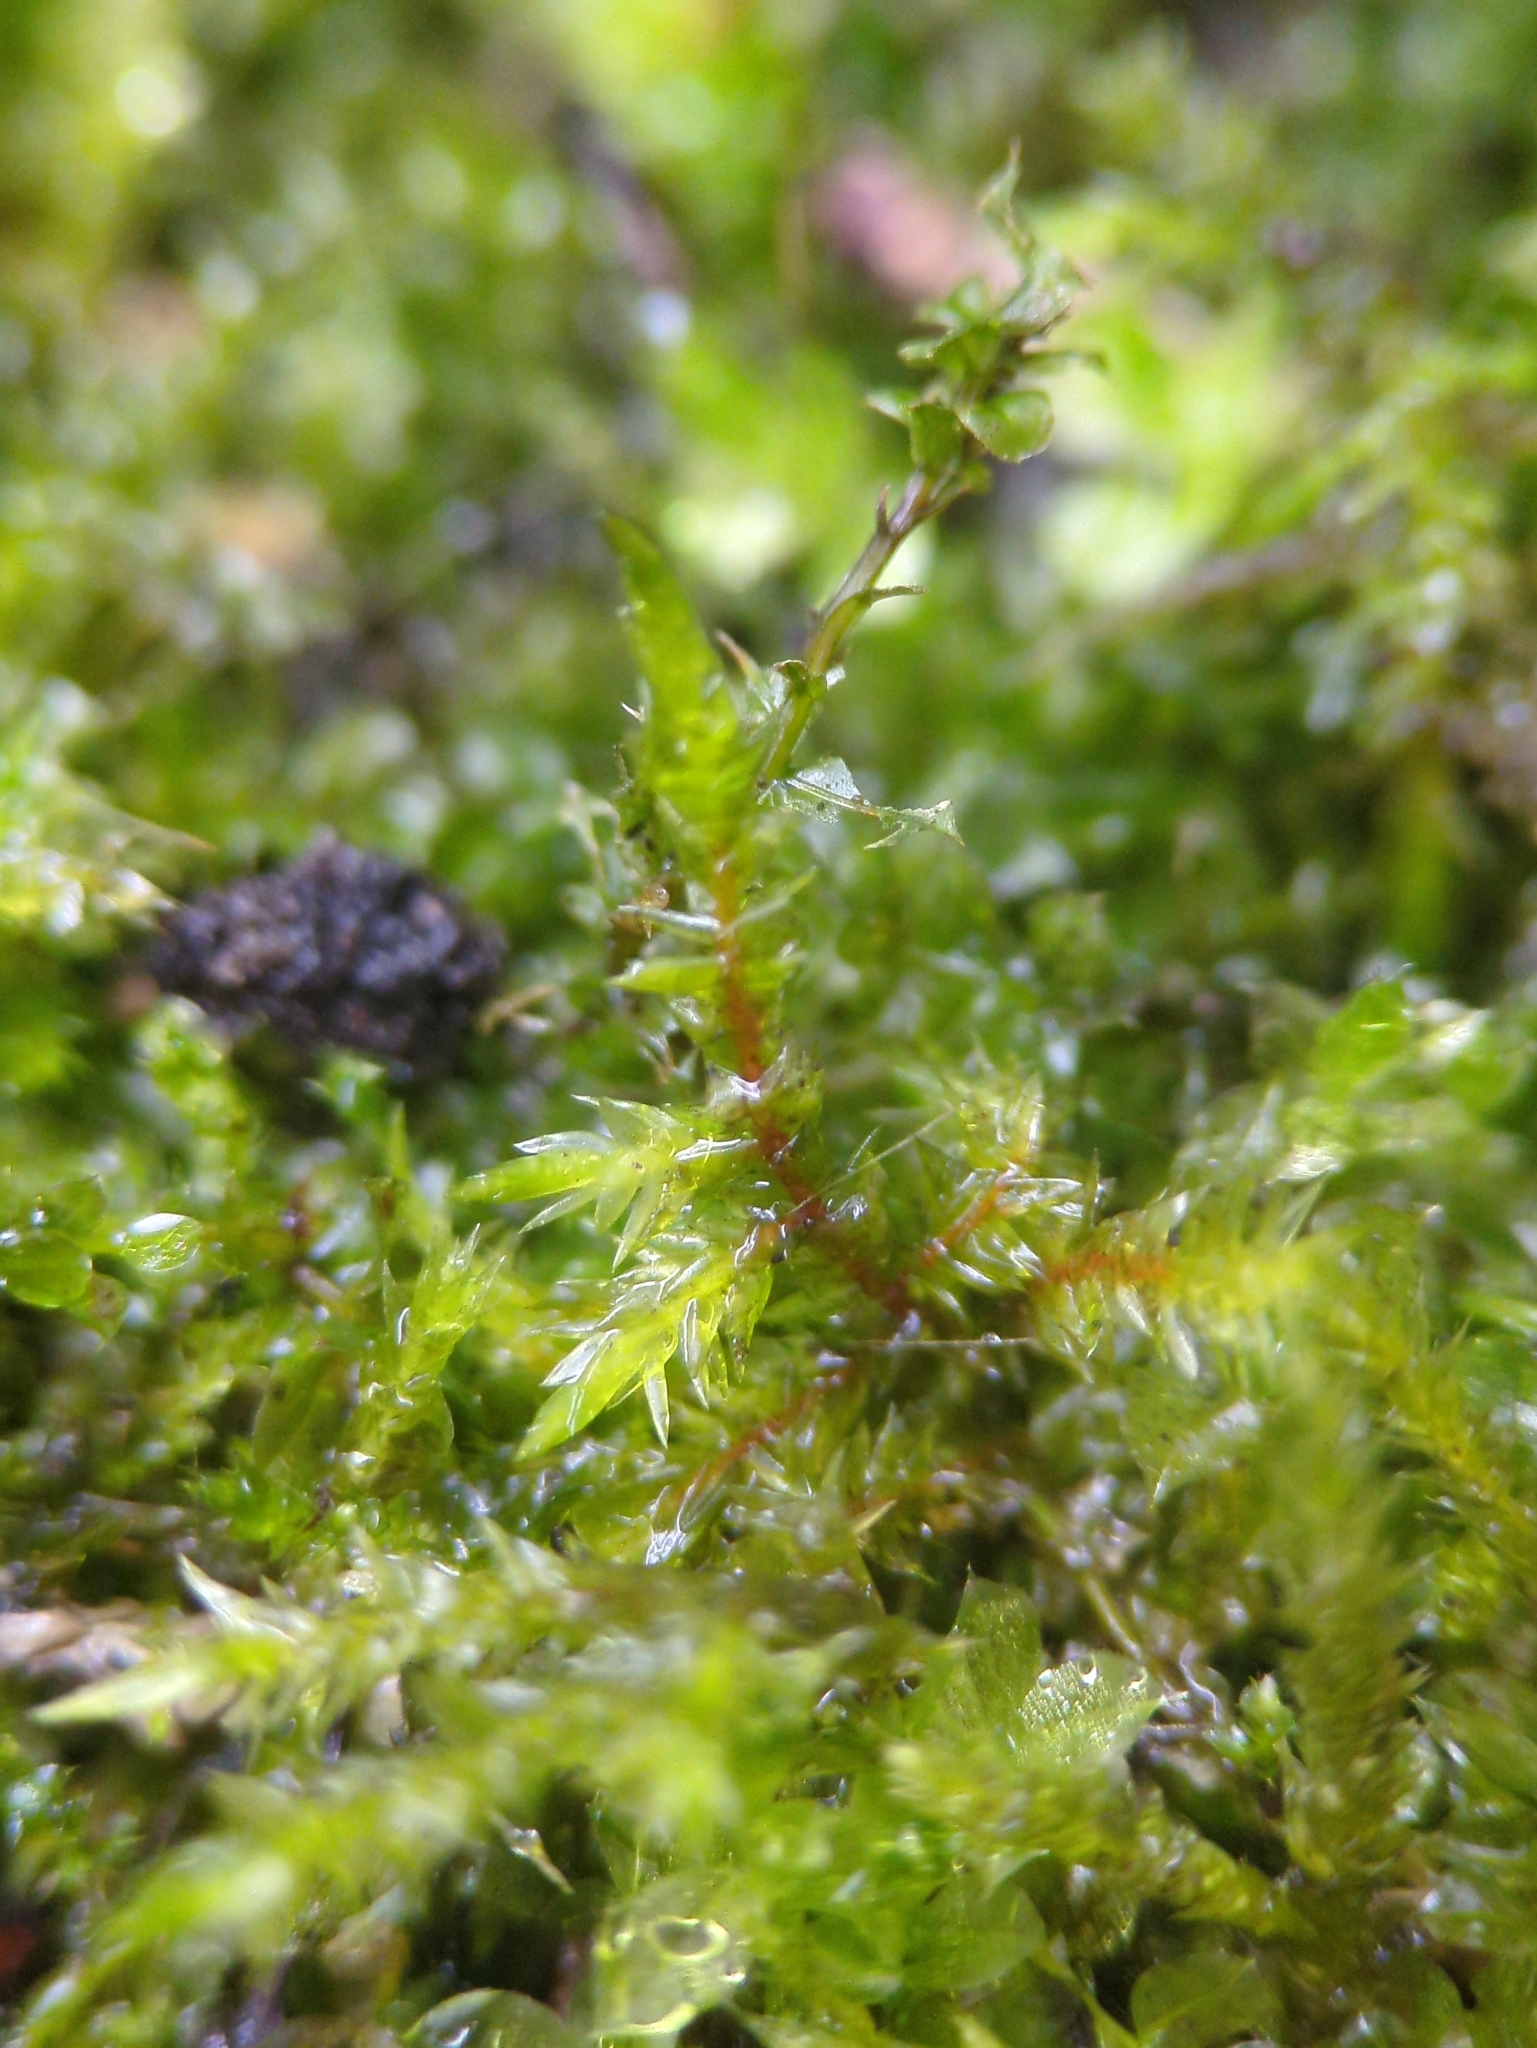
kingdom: Plantae
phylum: Bryophyta
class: Bryopsida
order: Hypnales
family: Pylaisiaceae
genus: Calliergonella
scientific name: Calliergonella cuspidata
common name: Common large wetland moss
